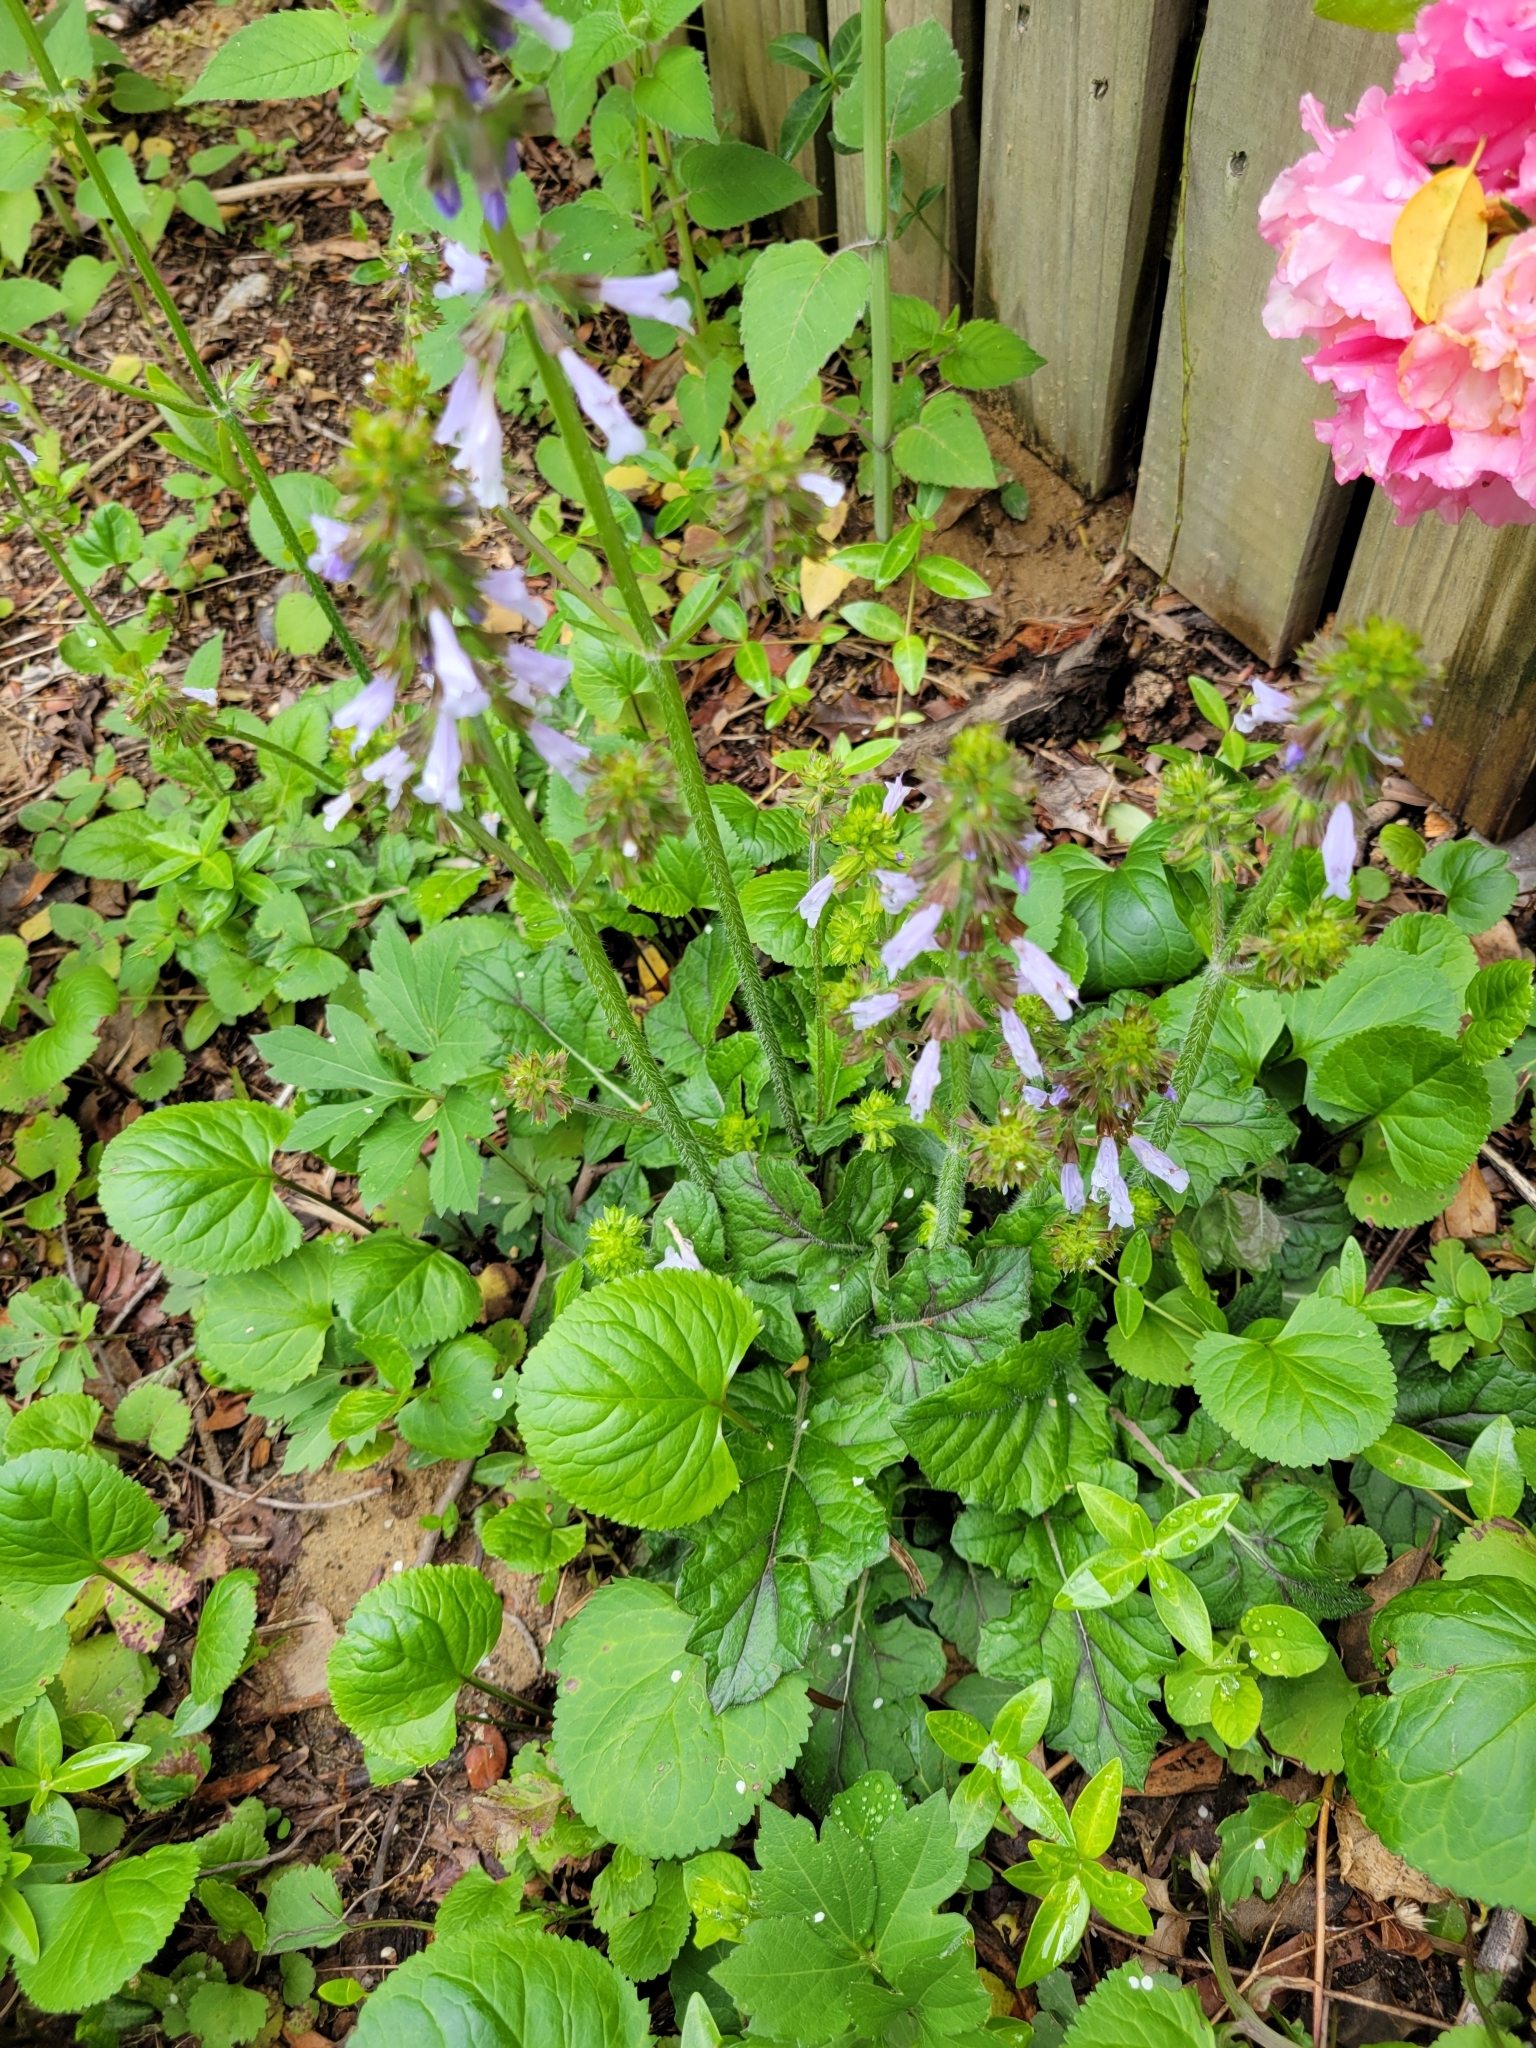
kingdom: Plantae
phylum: Tracheophyta
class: Magnoliopsida
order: Lamiales
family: Lamiaceae
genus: Salvia
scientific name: Salvia lyrata
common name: Cancerweed
